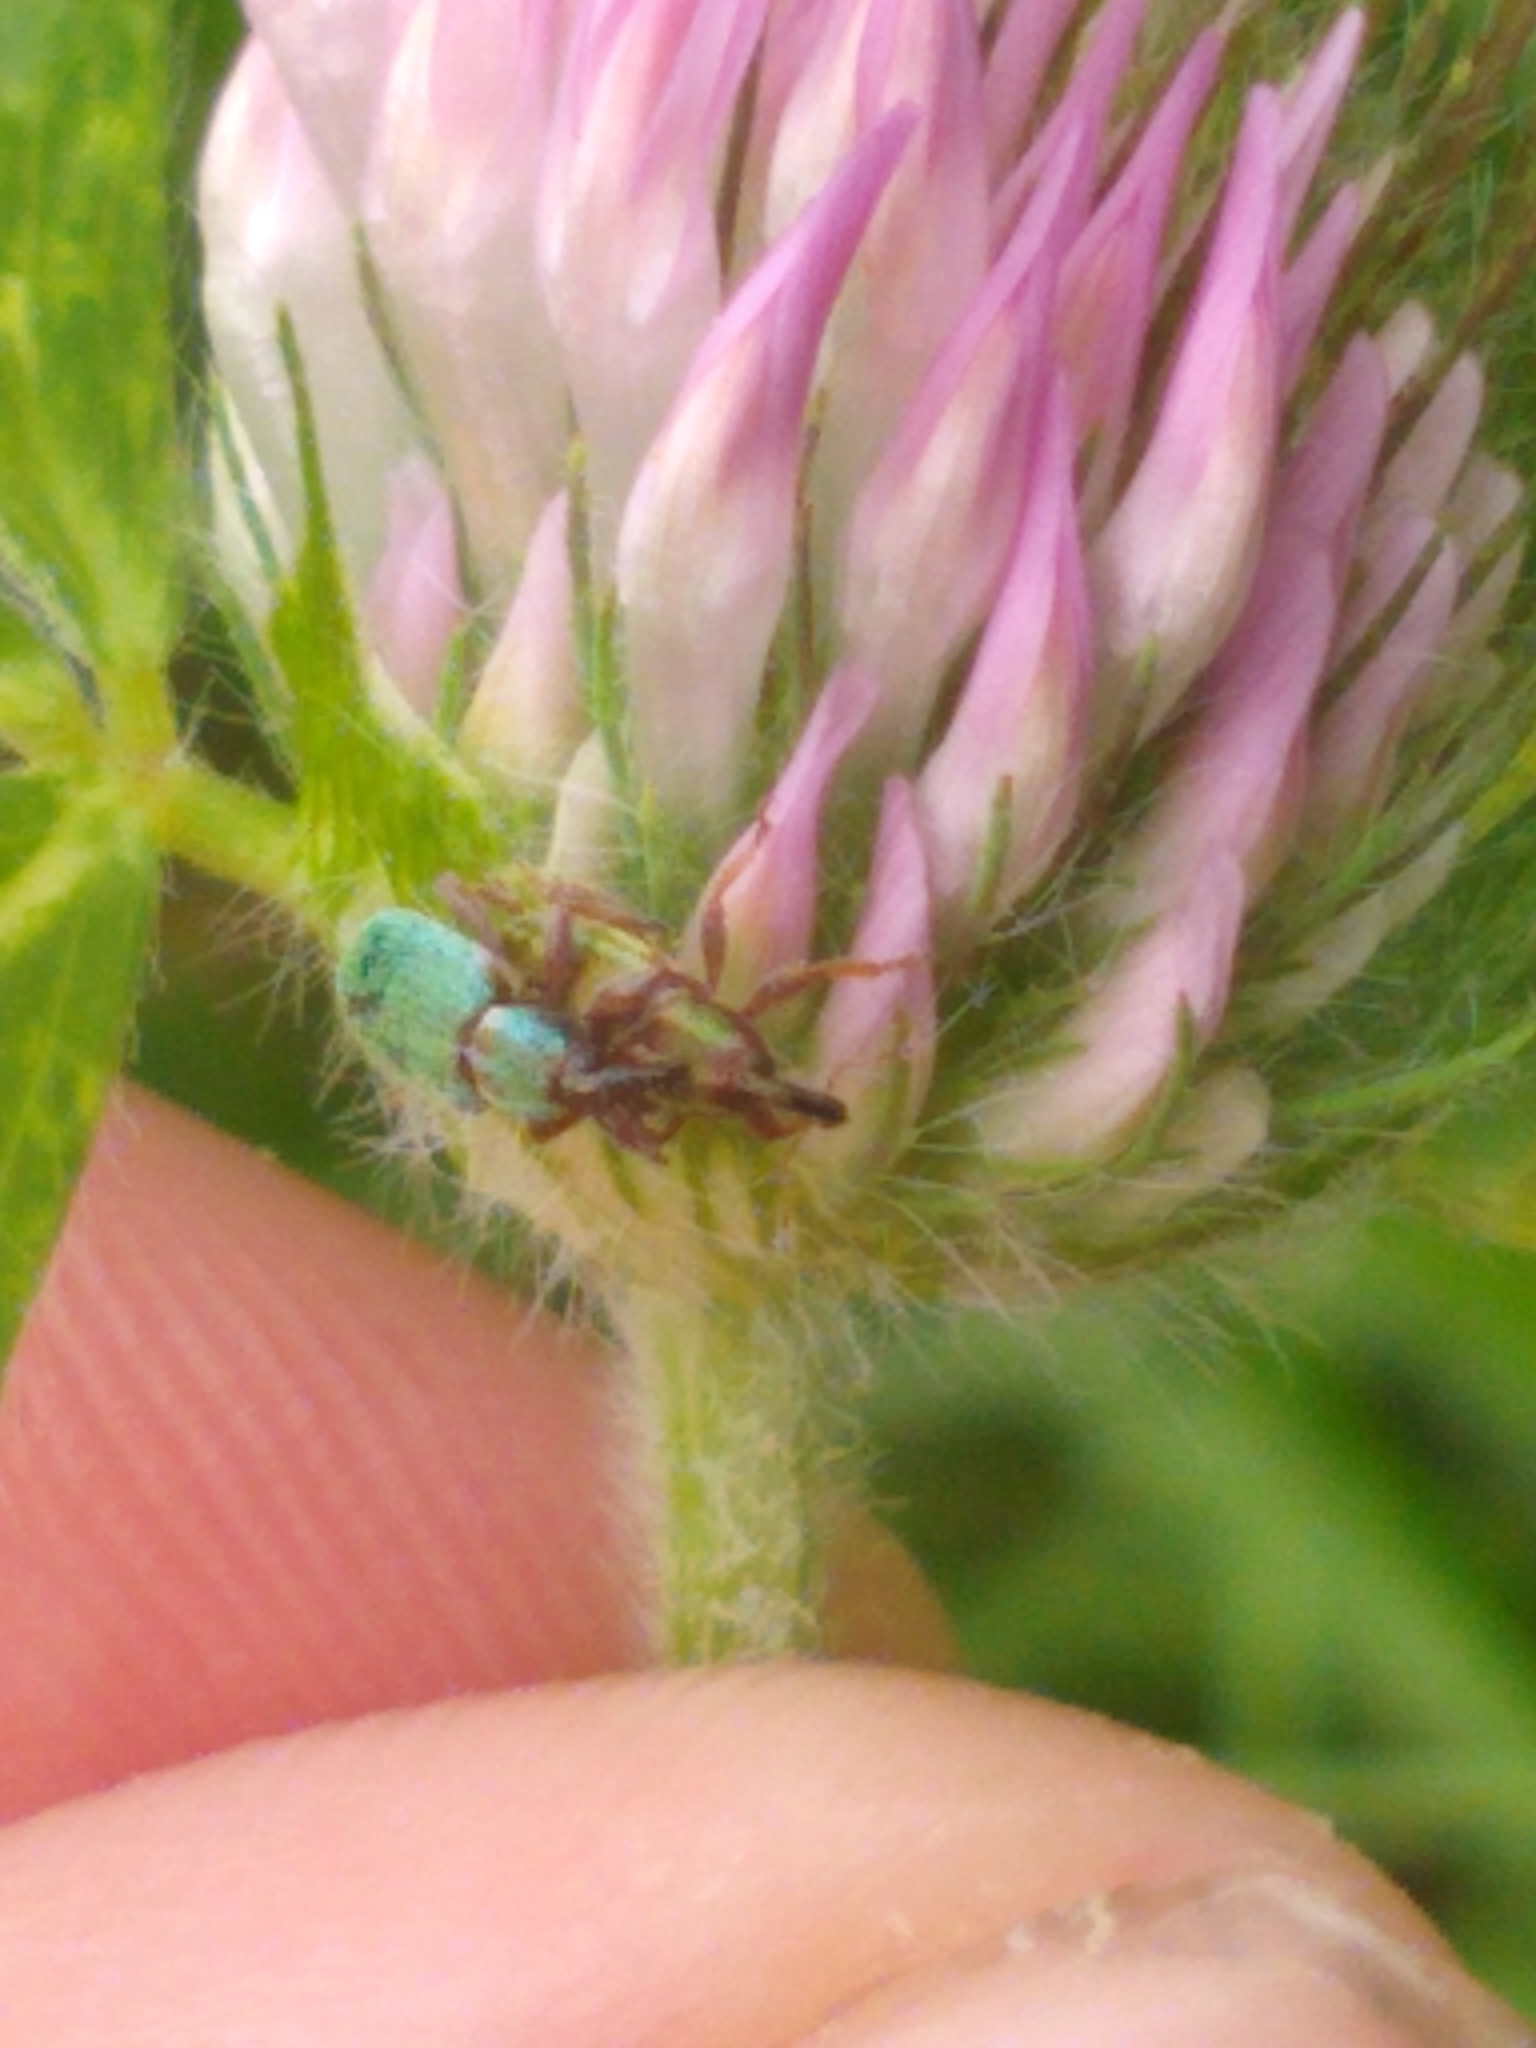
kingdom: Animalia
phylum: Arthropoda
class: Insecta
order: Coleoptera
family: Curculionidae
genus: Hypera
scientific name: Hypera nigrirostris
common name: Black-beaked green weevil
